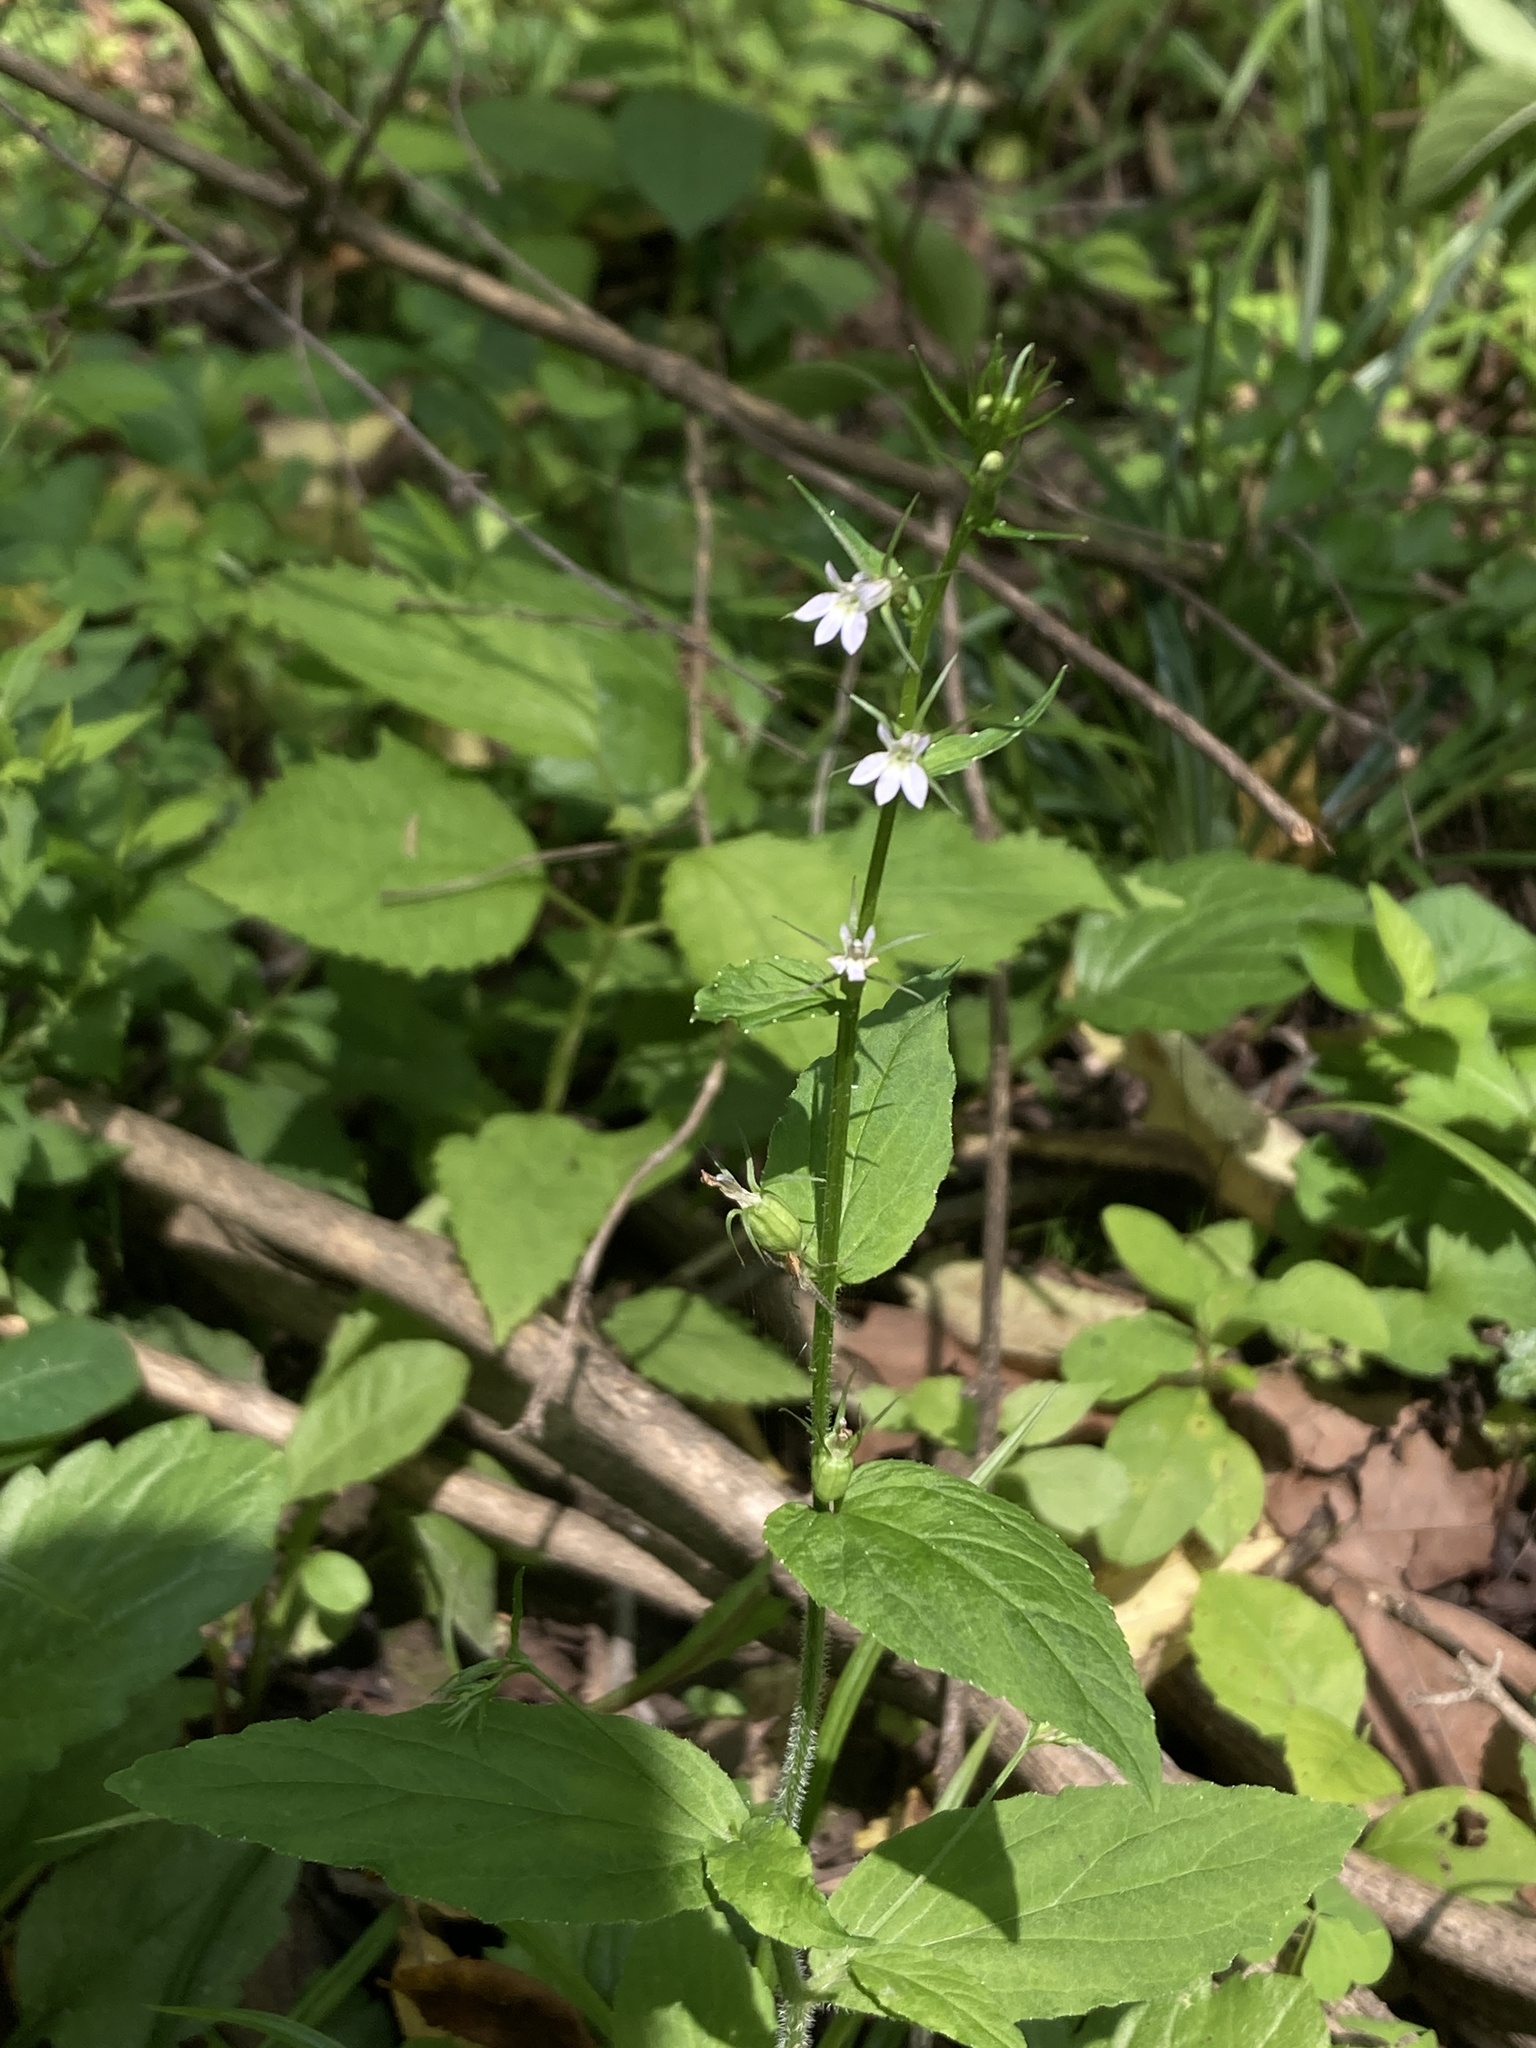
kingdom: Plantae
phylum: Tracheophyta
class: Magnoliopsida
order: Asterales
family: Campanulaceae
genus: Lobelia
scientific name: Lobelia inflata
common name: Indian tobacco
